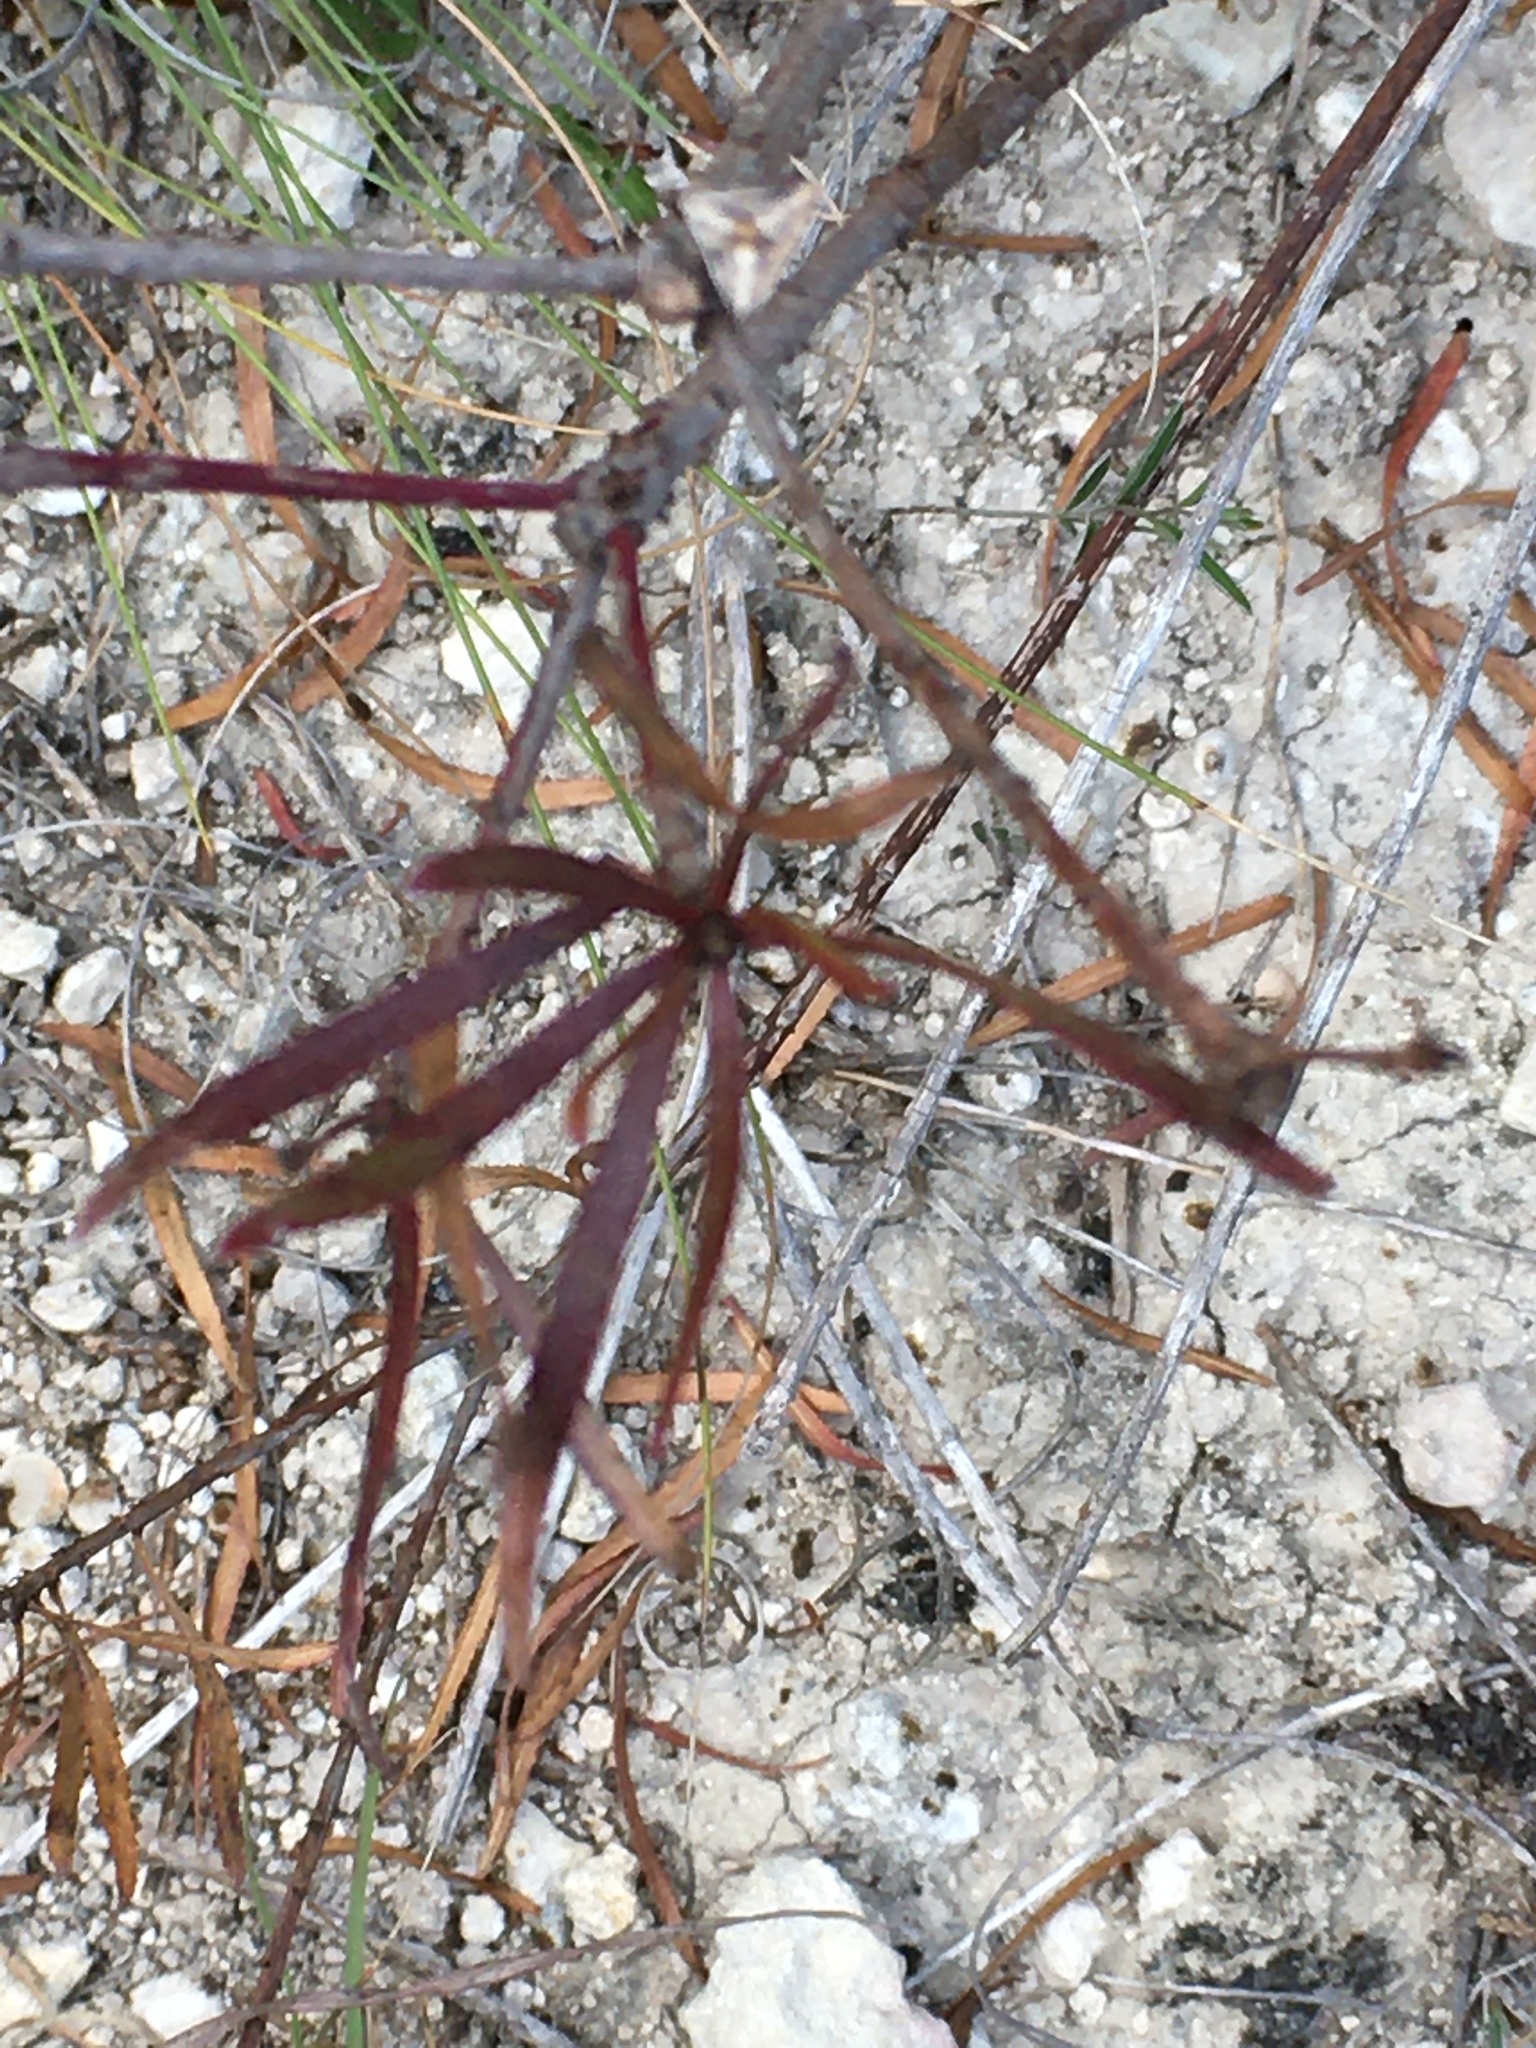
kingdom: Plantae
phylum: Tracheophyta
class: Magnoliopsida
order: Malpighiales
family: Euphorbiaceae
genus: Stillingia
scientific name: Stillingia texana
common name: Texas stillingia
